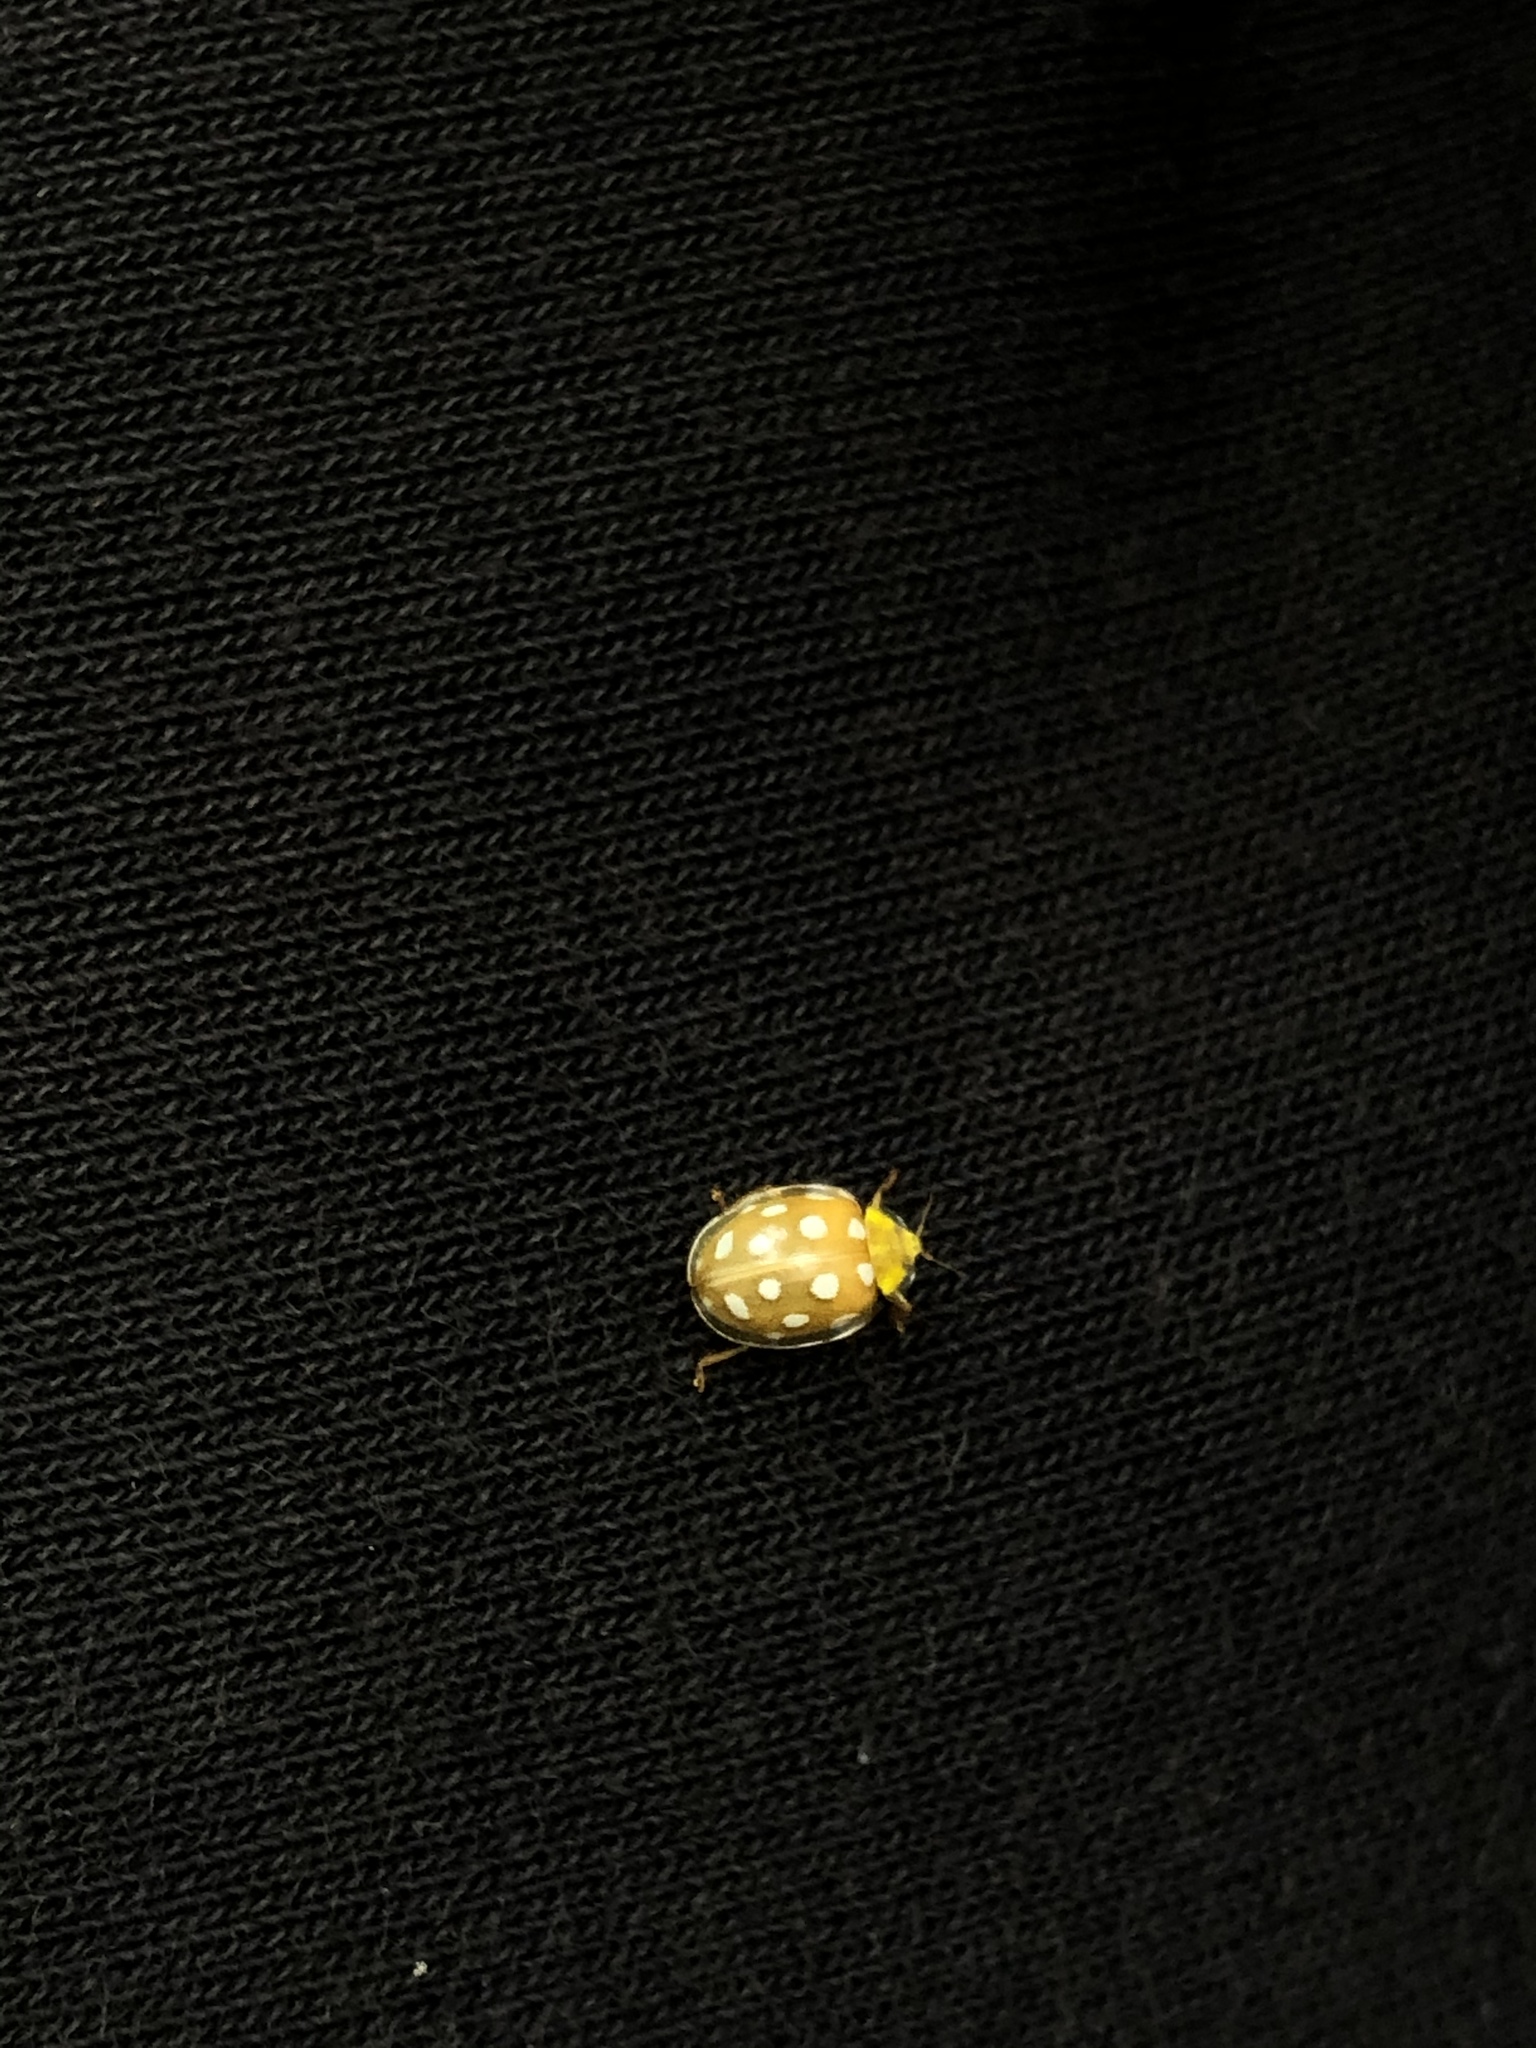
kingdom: Animalia
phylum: Arthropoda
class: Insecta
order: Coleoptera
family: Coccinellidae
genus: Halyzia
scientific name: Halyzia sedecimguttata
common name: Orange ladybird
